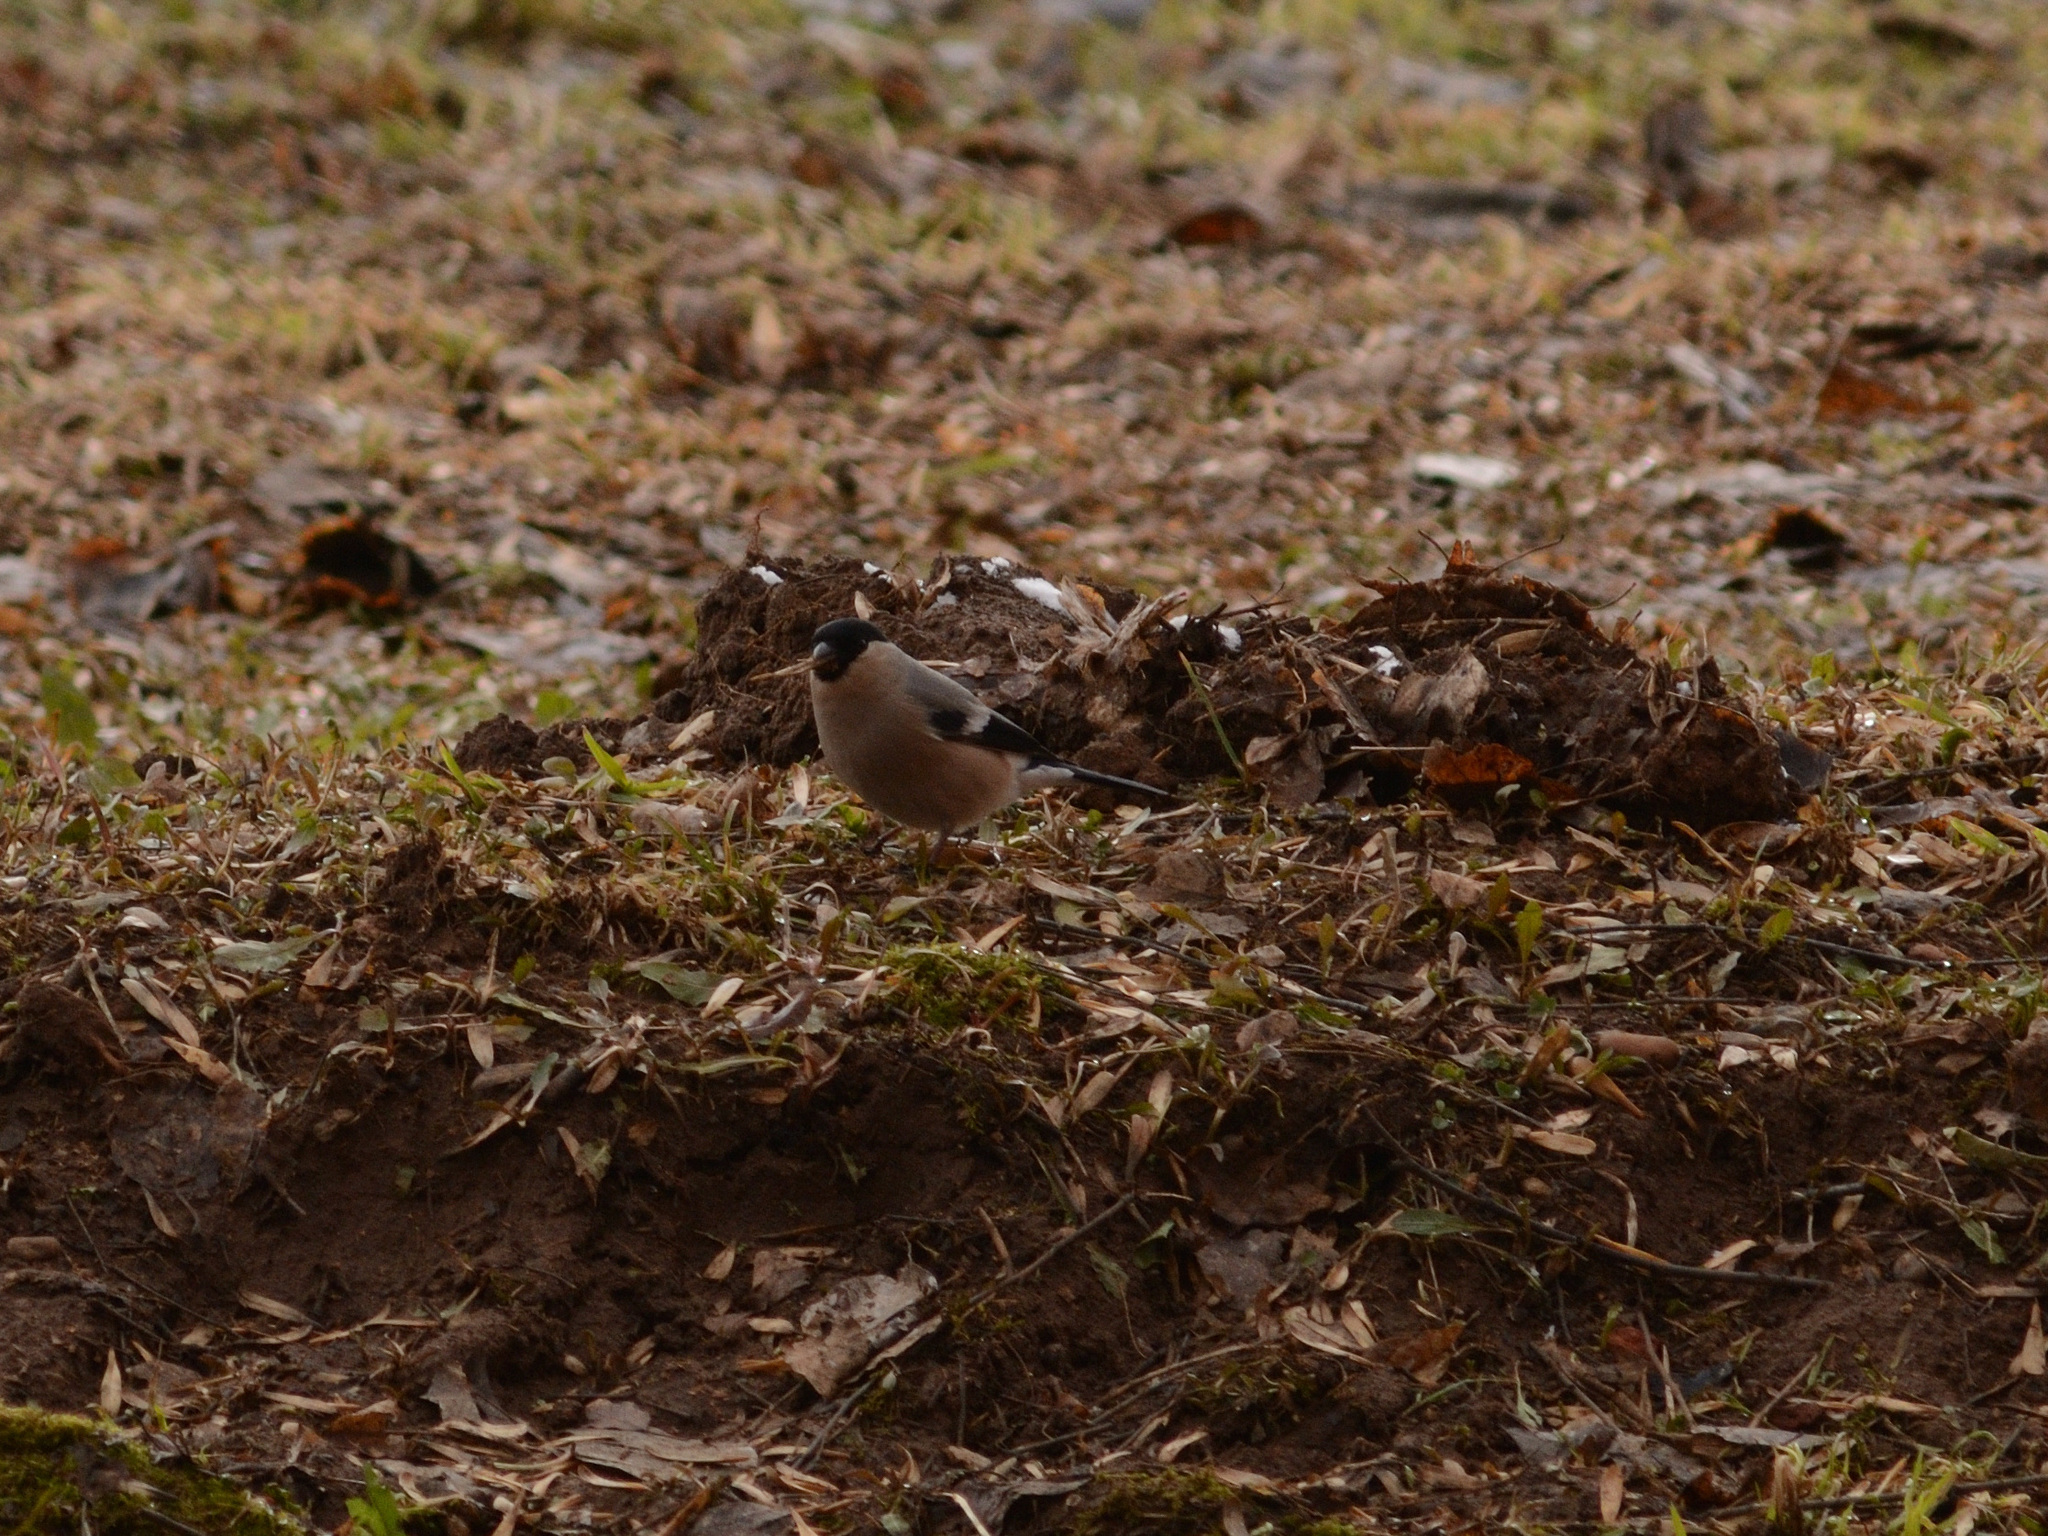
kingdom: Animalia
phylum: Chordata
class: Aves
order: Passeriformes
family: Fringillidae
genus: Pyrrhula
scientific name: Pyrrhula pyrrhula
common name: Eurasian bullfinch
